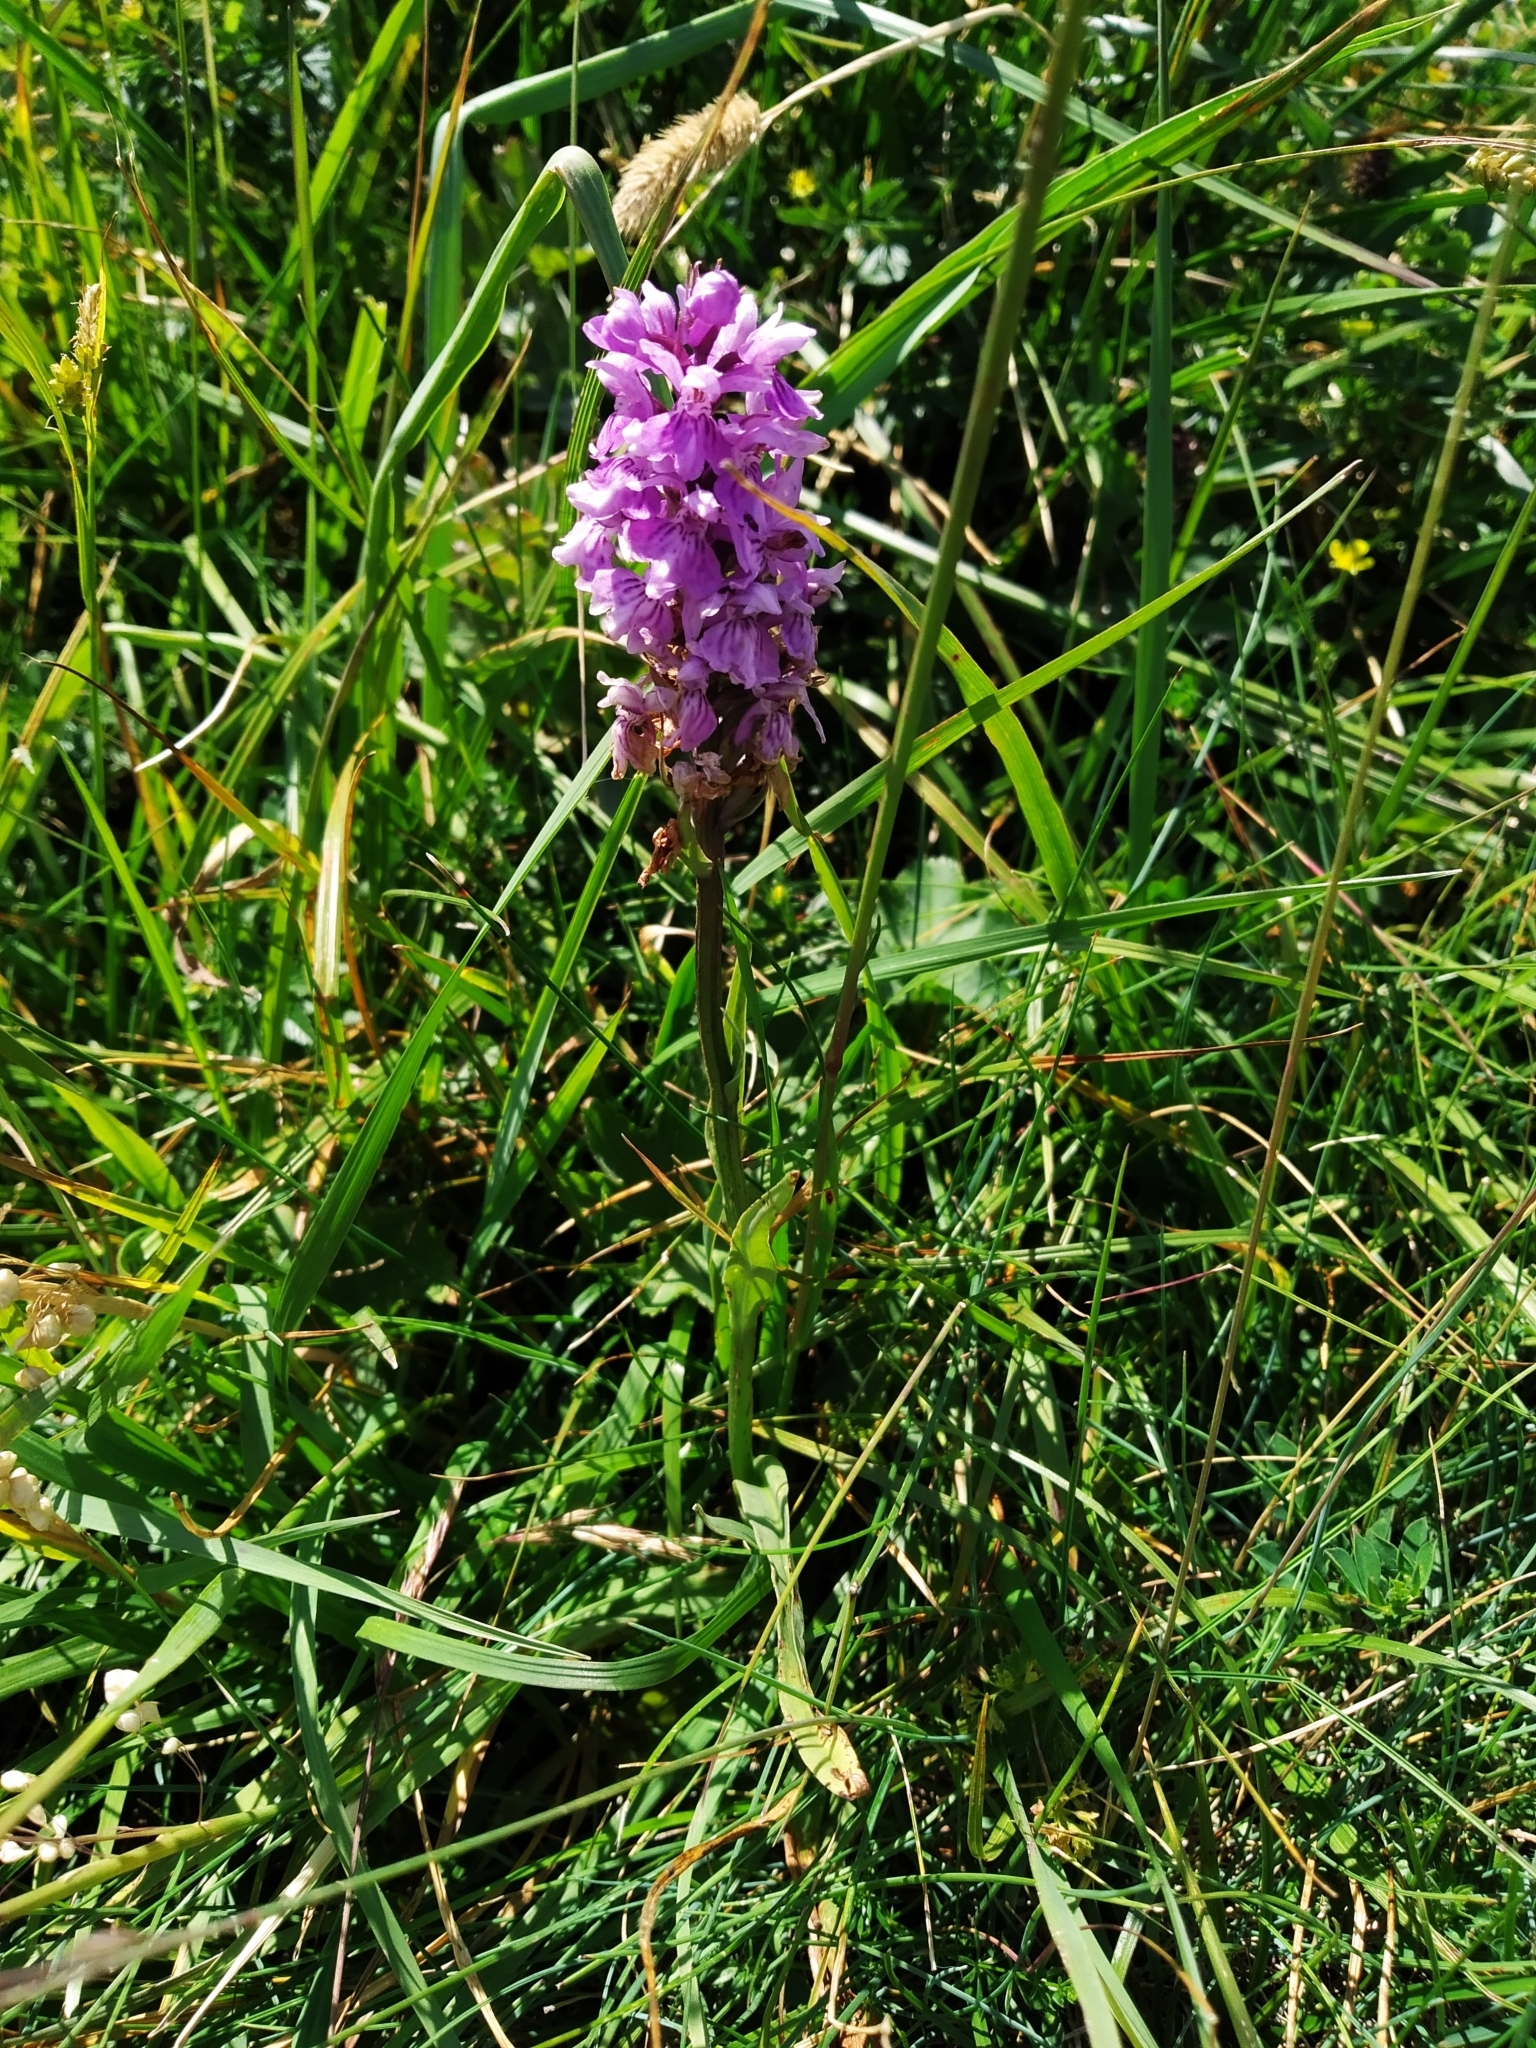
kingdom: Plantae
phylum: Tracheophyta
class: Liliopsida
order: Asparagales
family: Orchidaceae
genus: Dactylorhiza
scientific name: Dactylorhiza maculata
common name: Heath spotted-orchid
